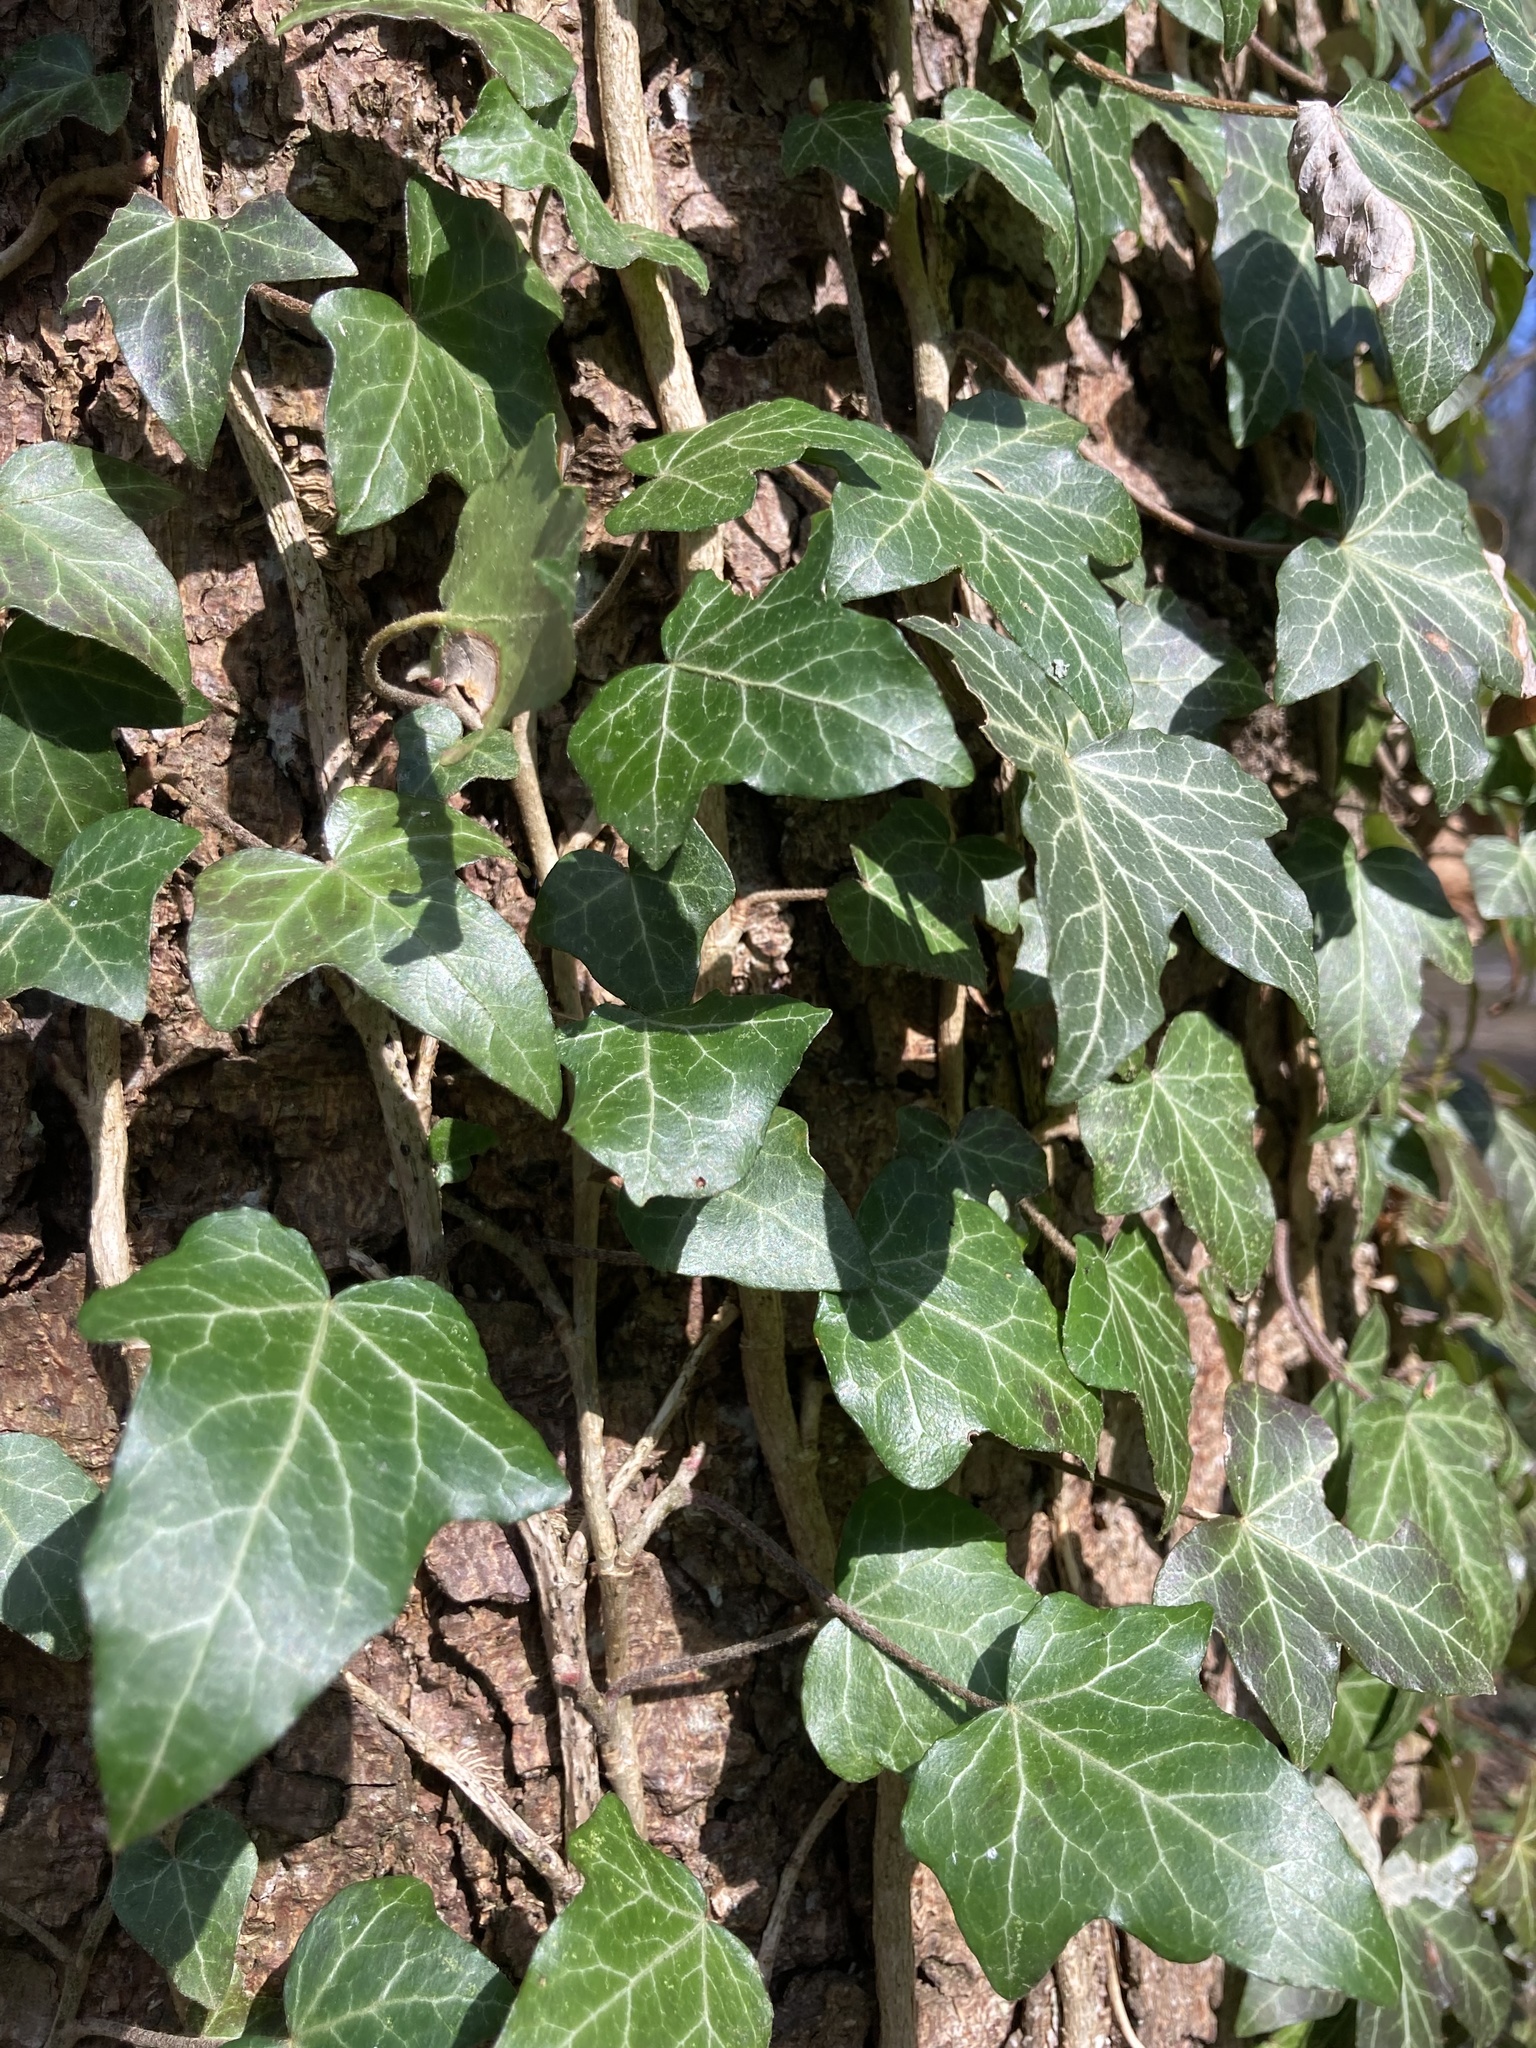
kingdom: Plantae
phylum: Tracheophyta
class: Magnoliopsida
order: Apiales
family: Araliaceae
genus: Hedera
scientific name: Hedera helix
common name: Ivy
